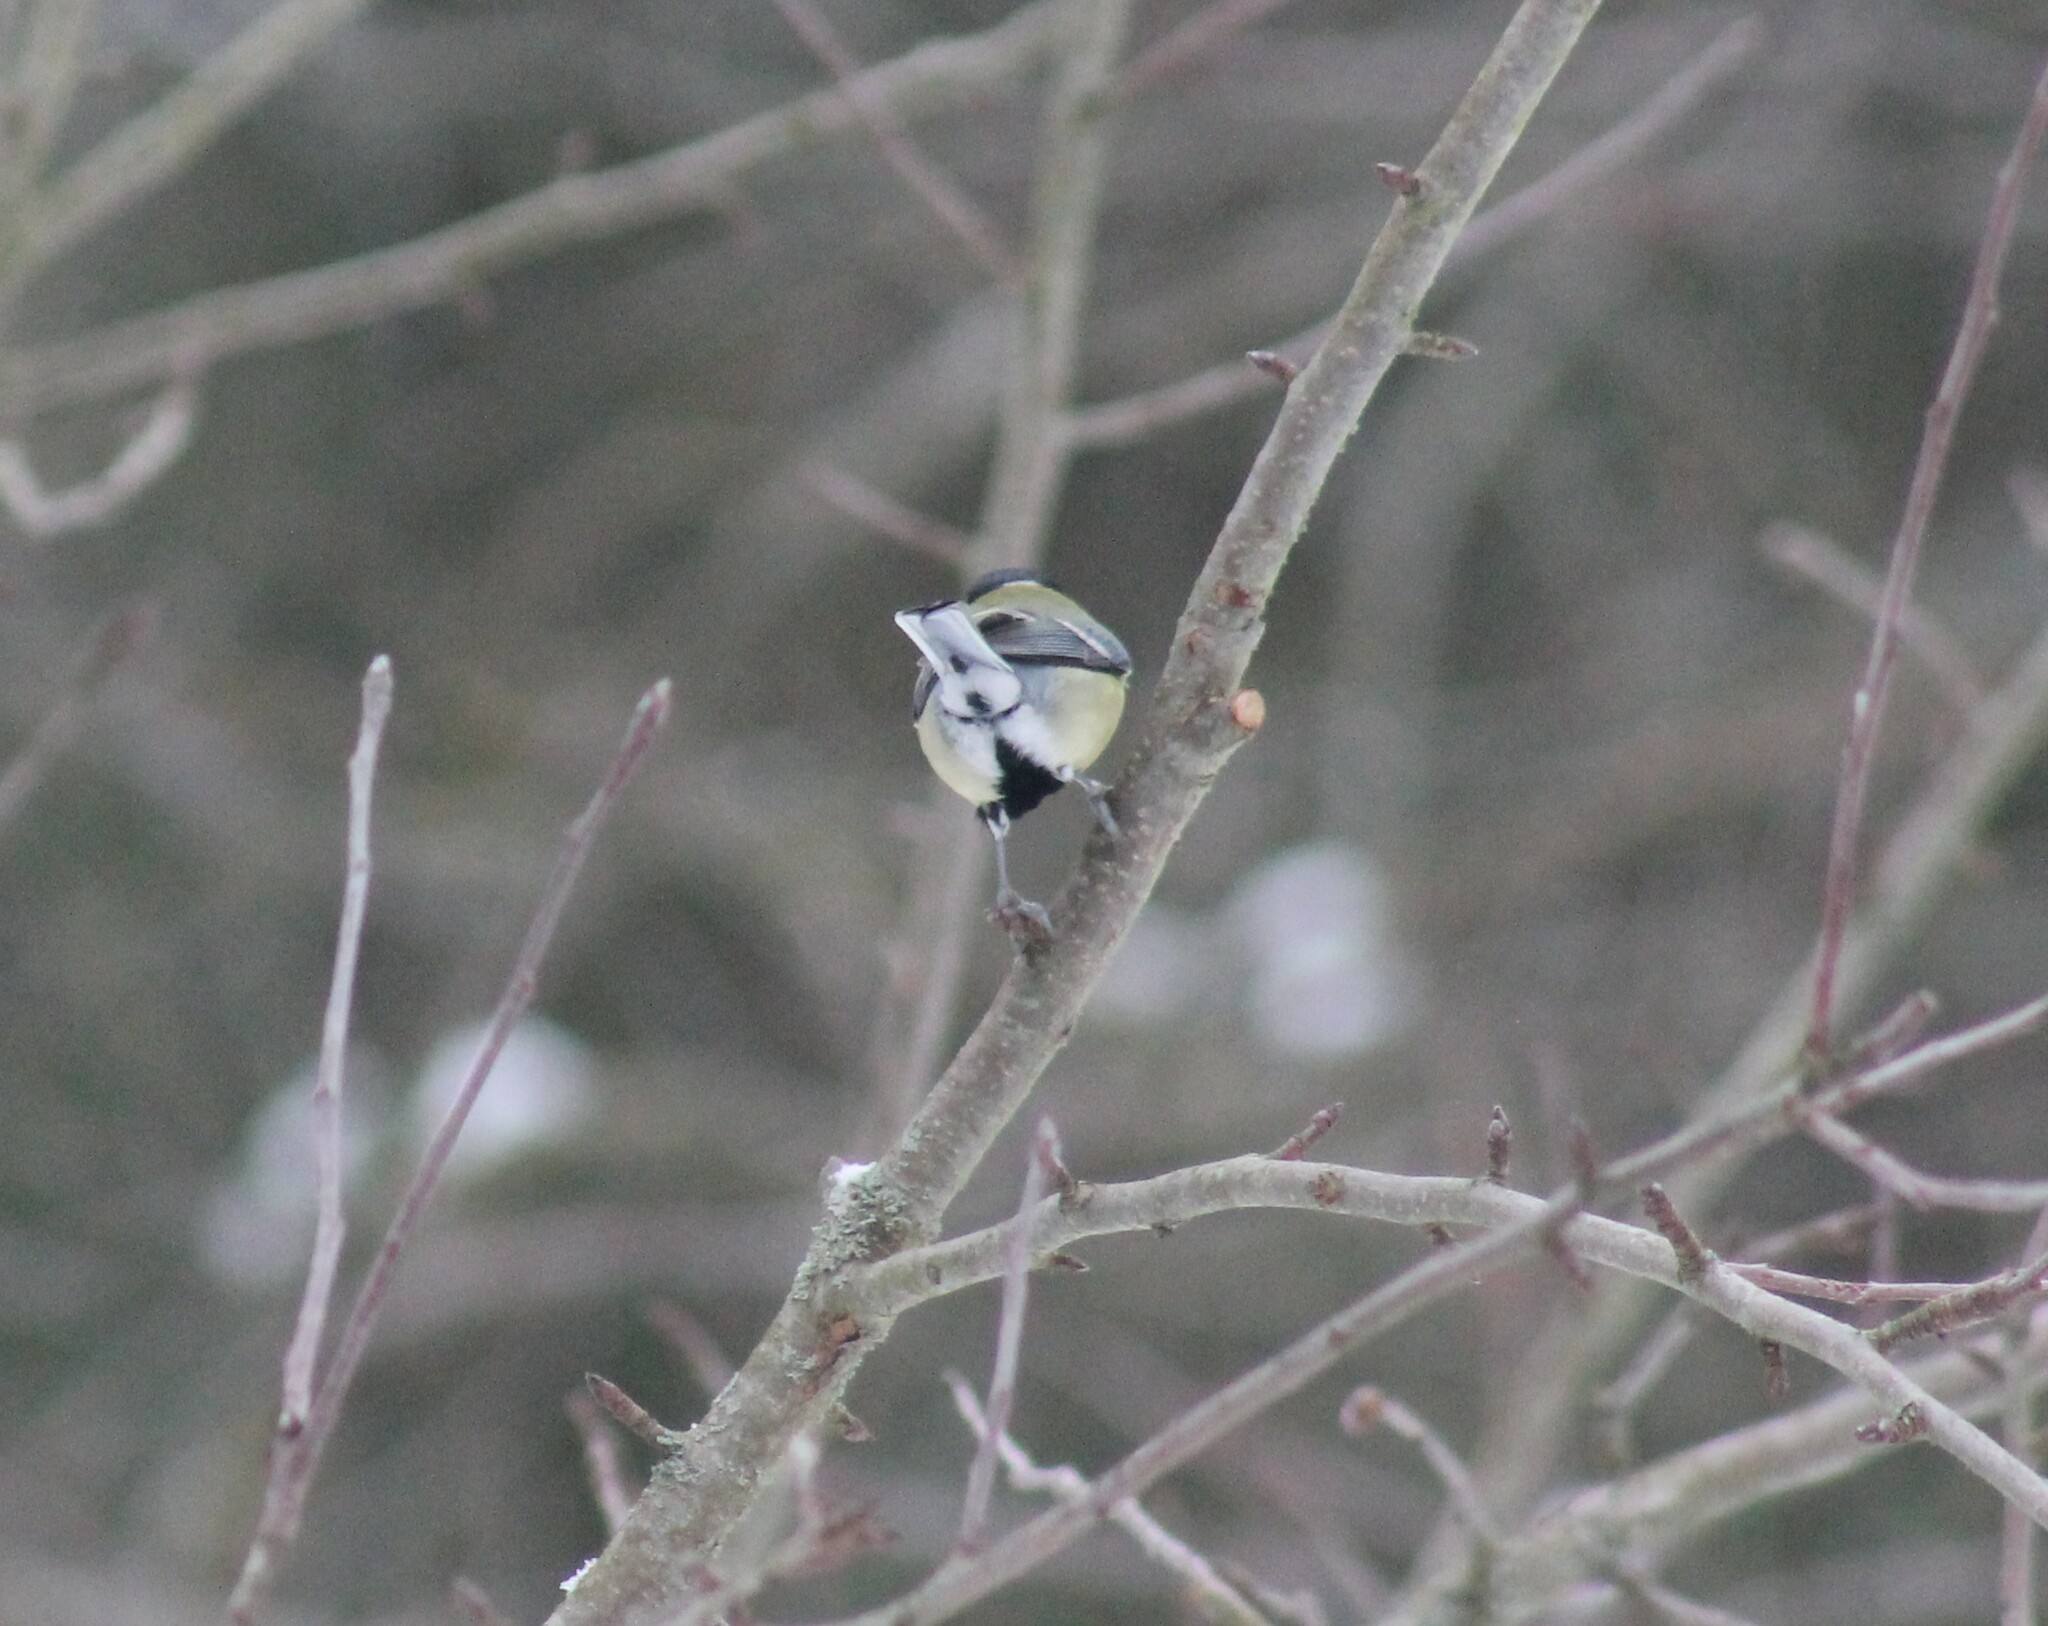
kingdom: Animalia
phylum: Chordata
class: Aves
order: Passeriformes
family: Paridae
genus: Parus
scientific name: Parus major
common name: Great tit
